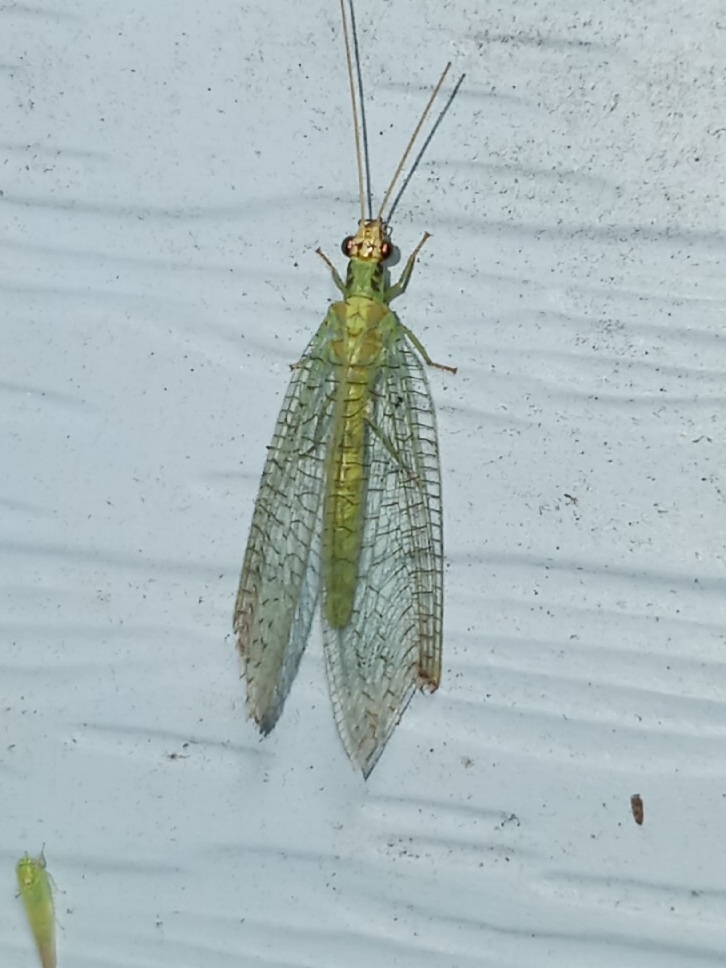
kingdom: Animalia
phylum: Arthropoda
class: Insecta
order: Neuroptera
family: Chrysopidae
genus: Chrysopa
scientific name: Chrysopa incompleta
